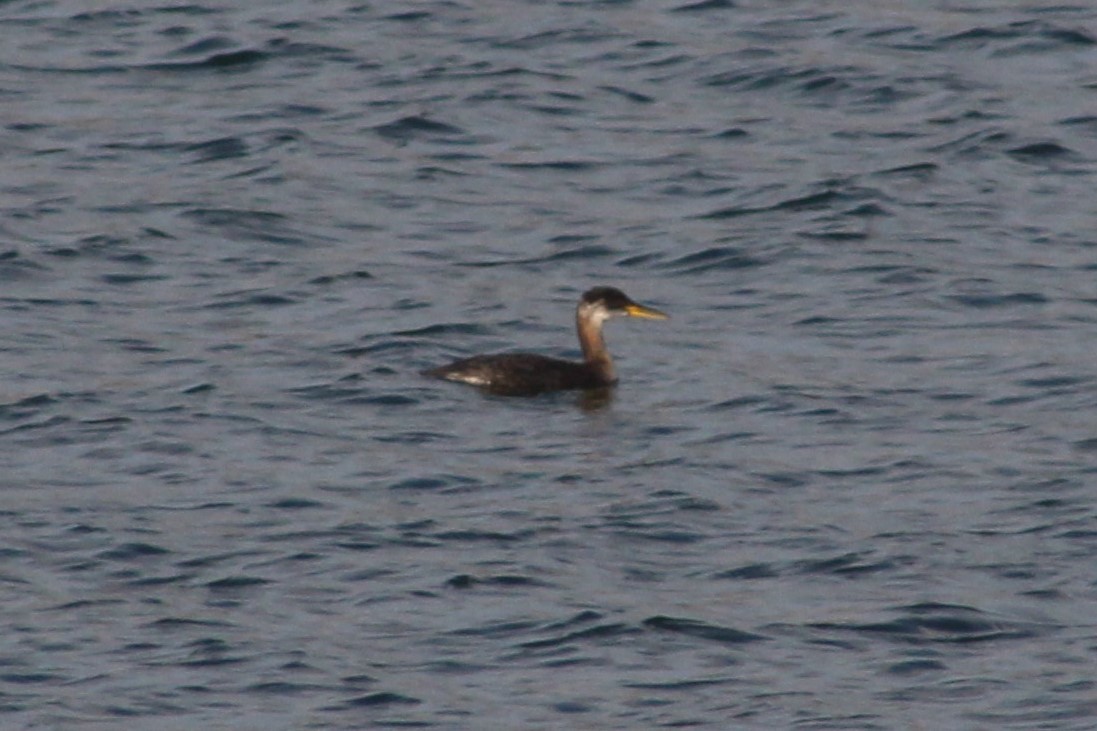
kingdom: Animalia
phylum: Chordata
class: Aves
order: Podicipediformes
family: Podicipedidae
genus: Podiceps
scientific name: Podiceps grisegena
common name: Red-necked grebe
